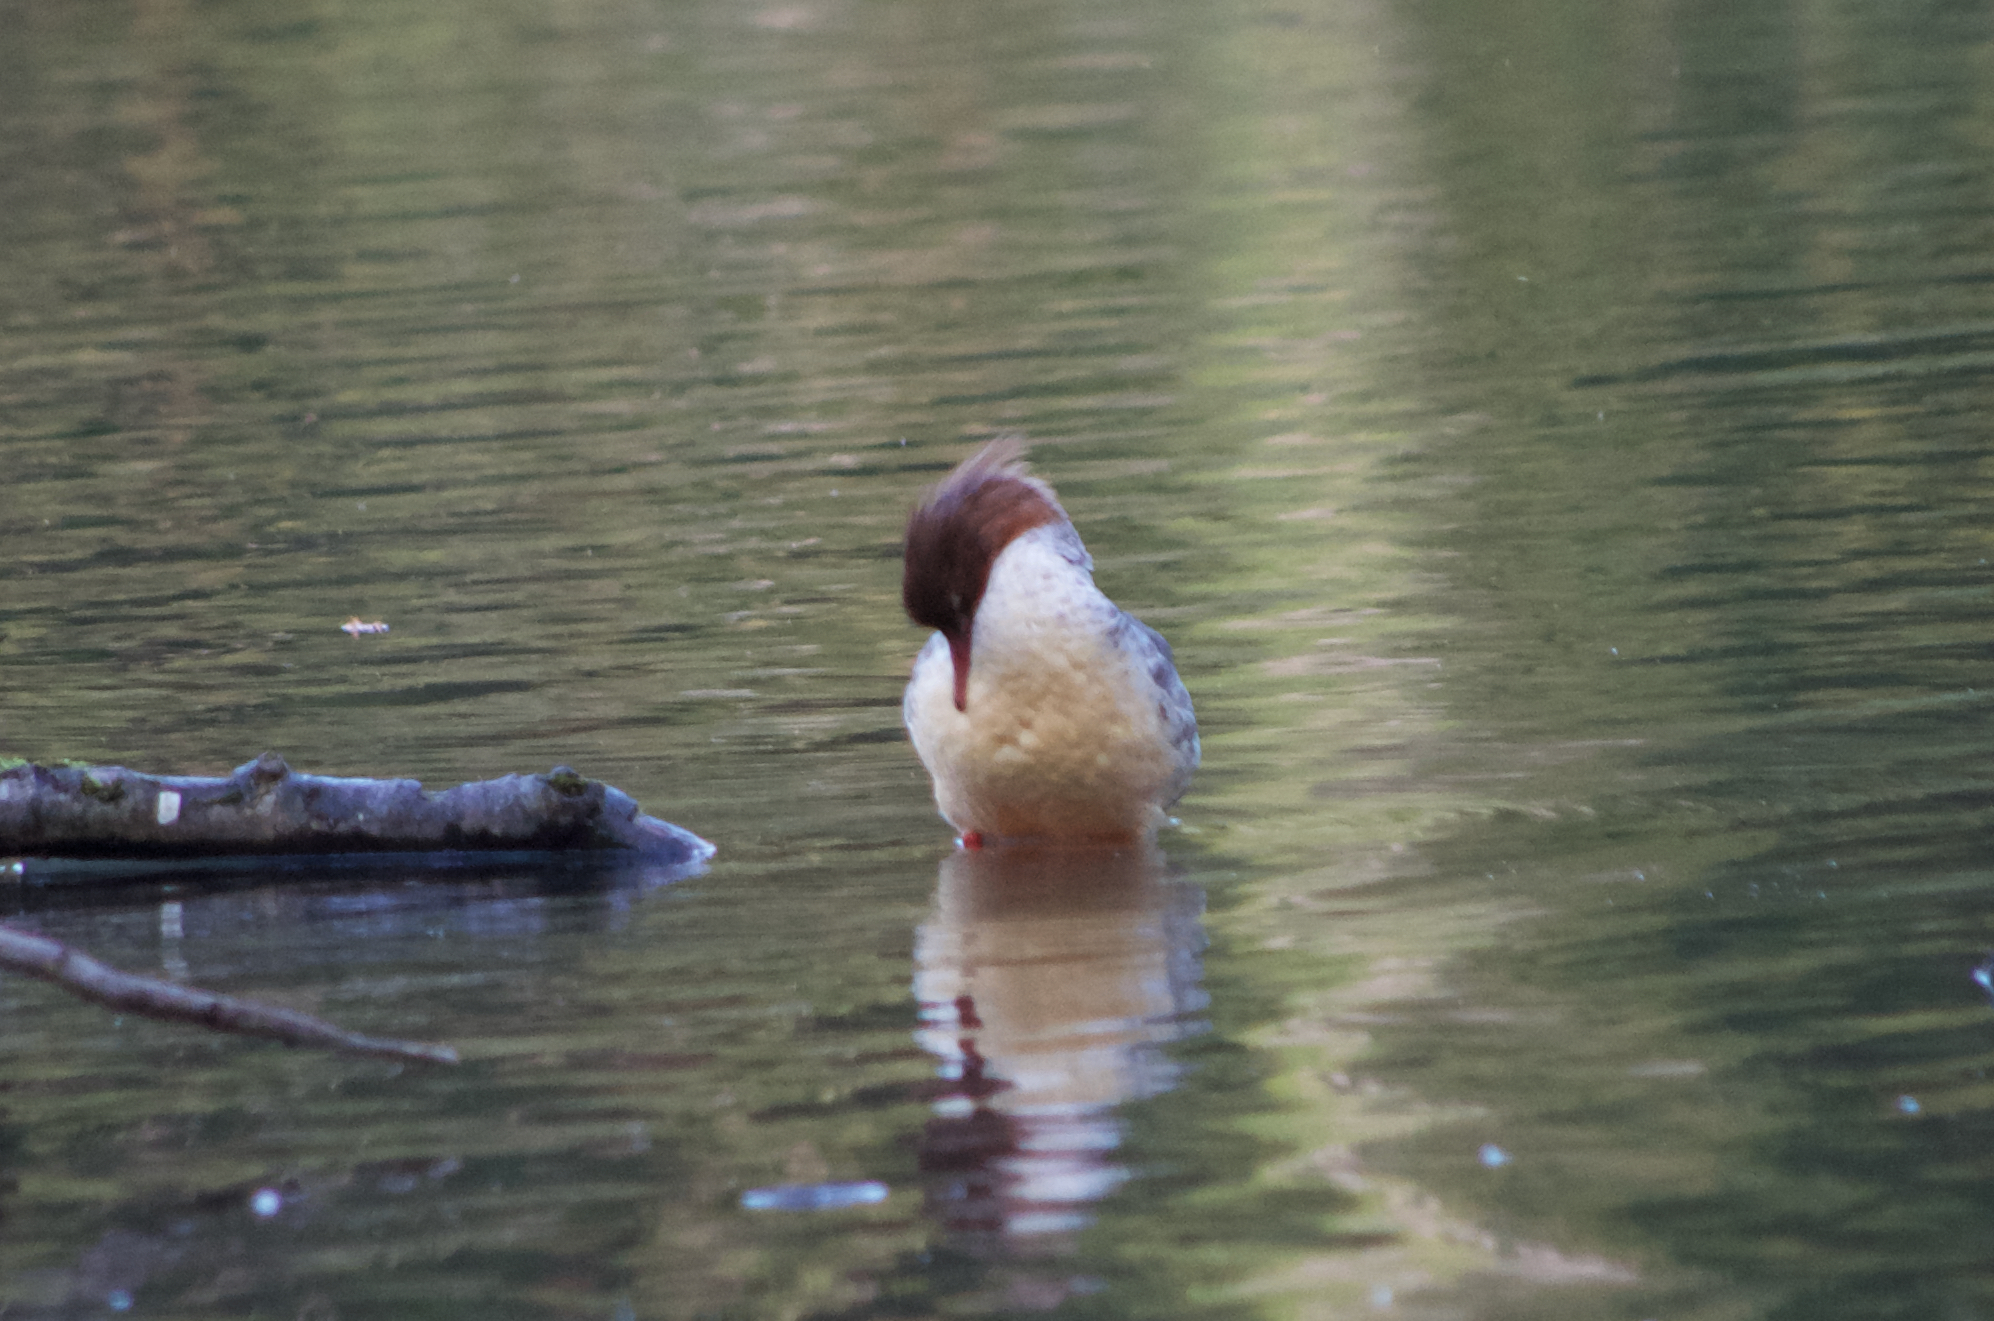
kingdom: Animalia
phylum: Chordata
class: Aves
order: Anseriformes
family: Anatidae
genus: Mergus
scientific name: Mergus merganser
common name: Common merganser
